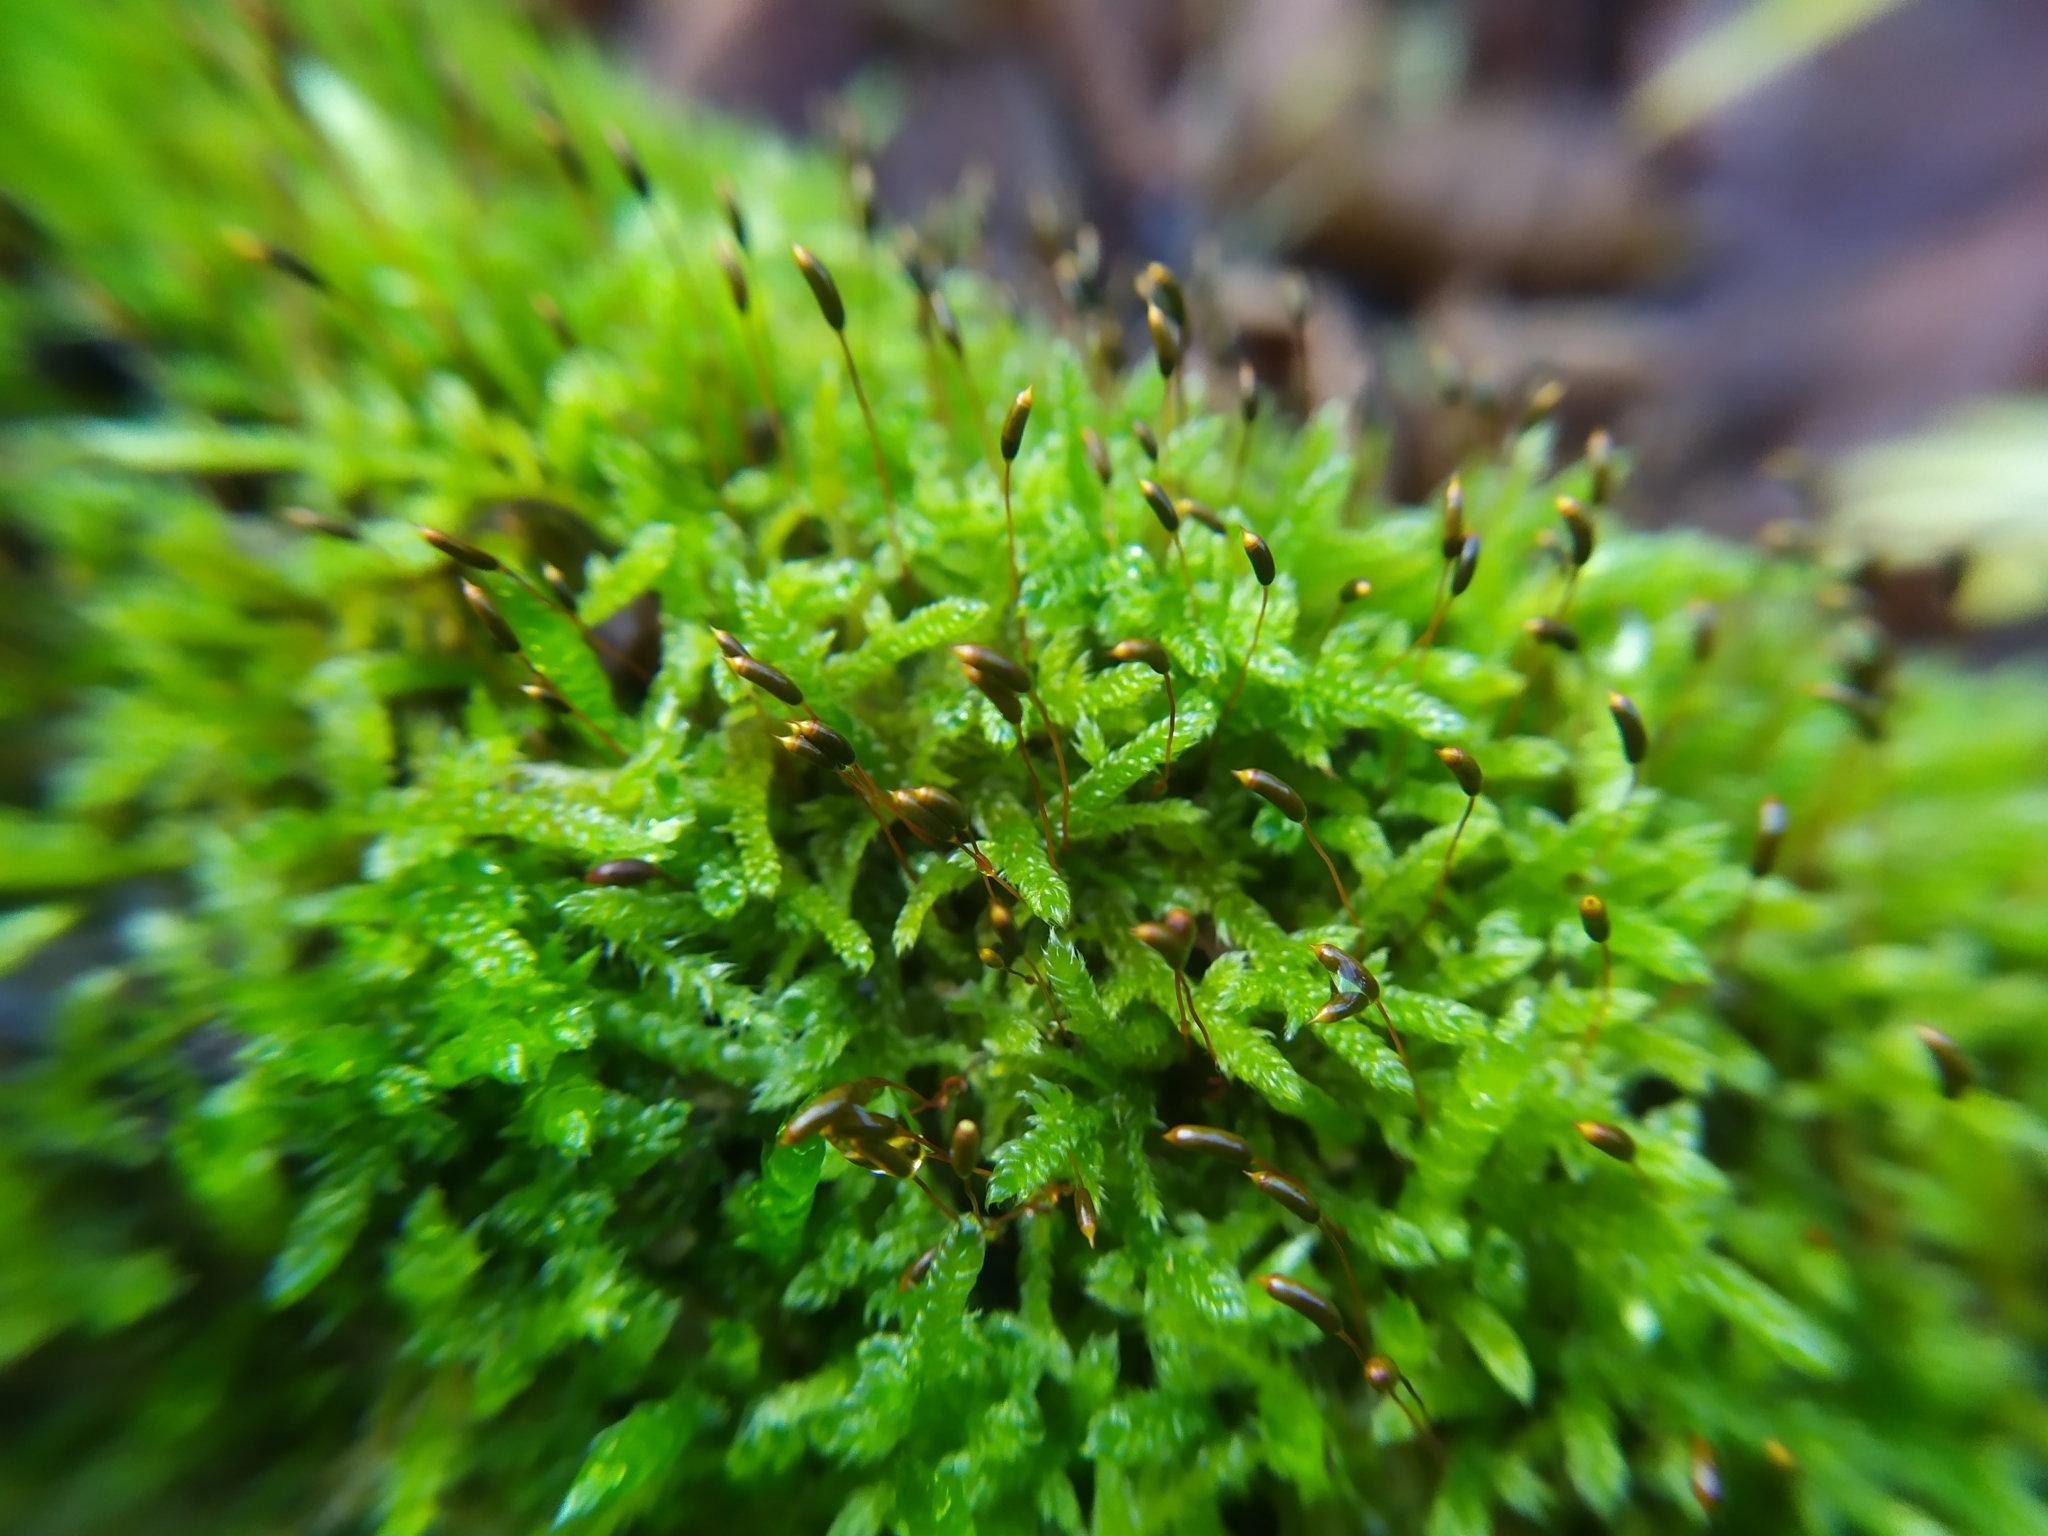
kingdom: Plantae
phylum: Bryophyta
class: Bryopsida
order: Hypnales
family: Hypnaceae
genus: Hypnum
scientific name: Hypnum cupressiforme
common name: Cypress-leaved plait-moss
